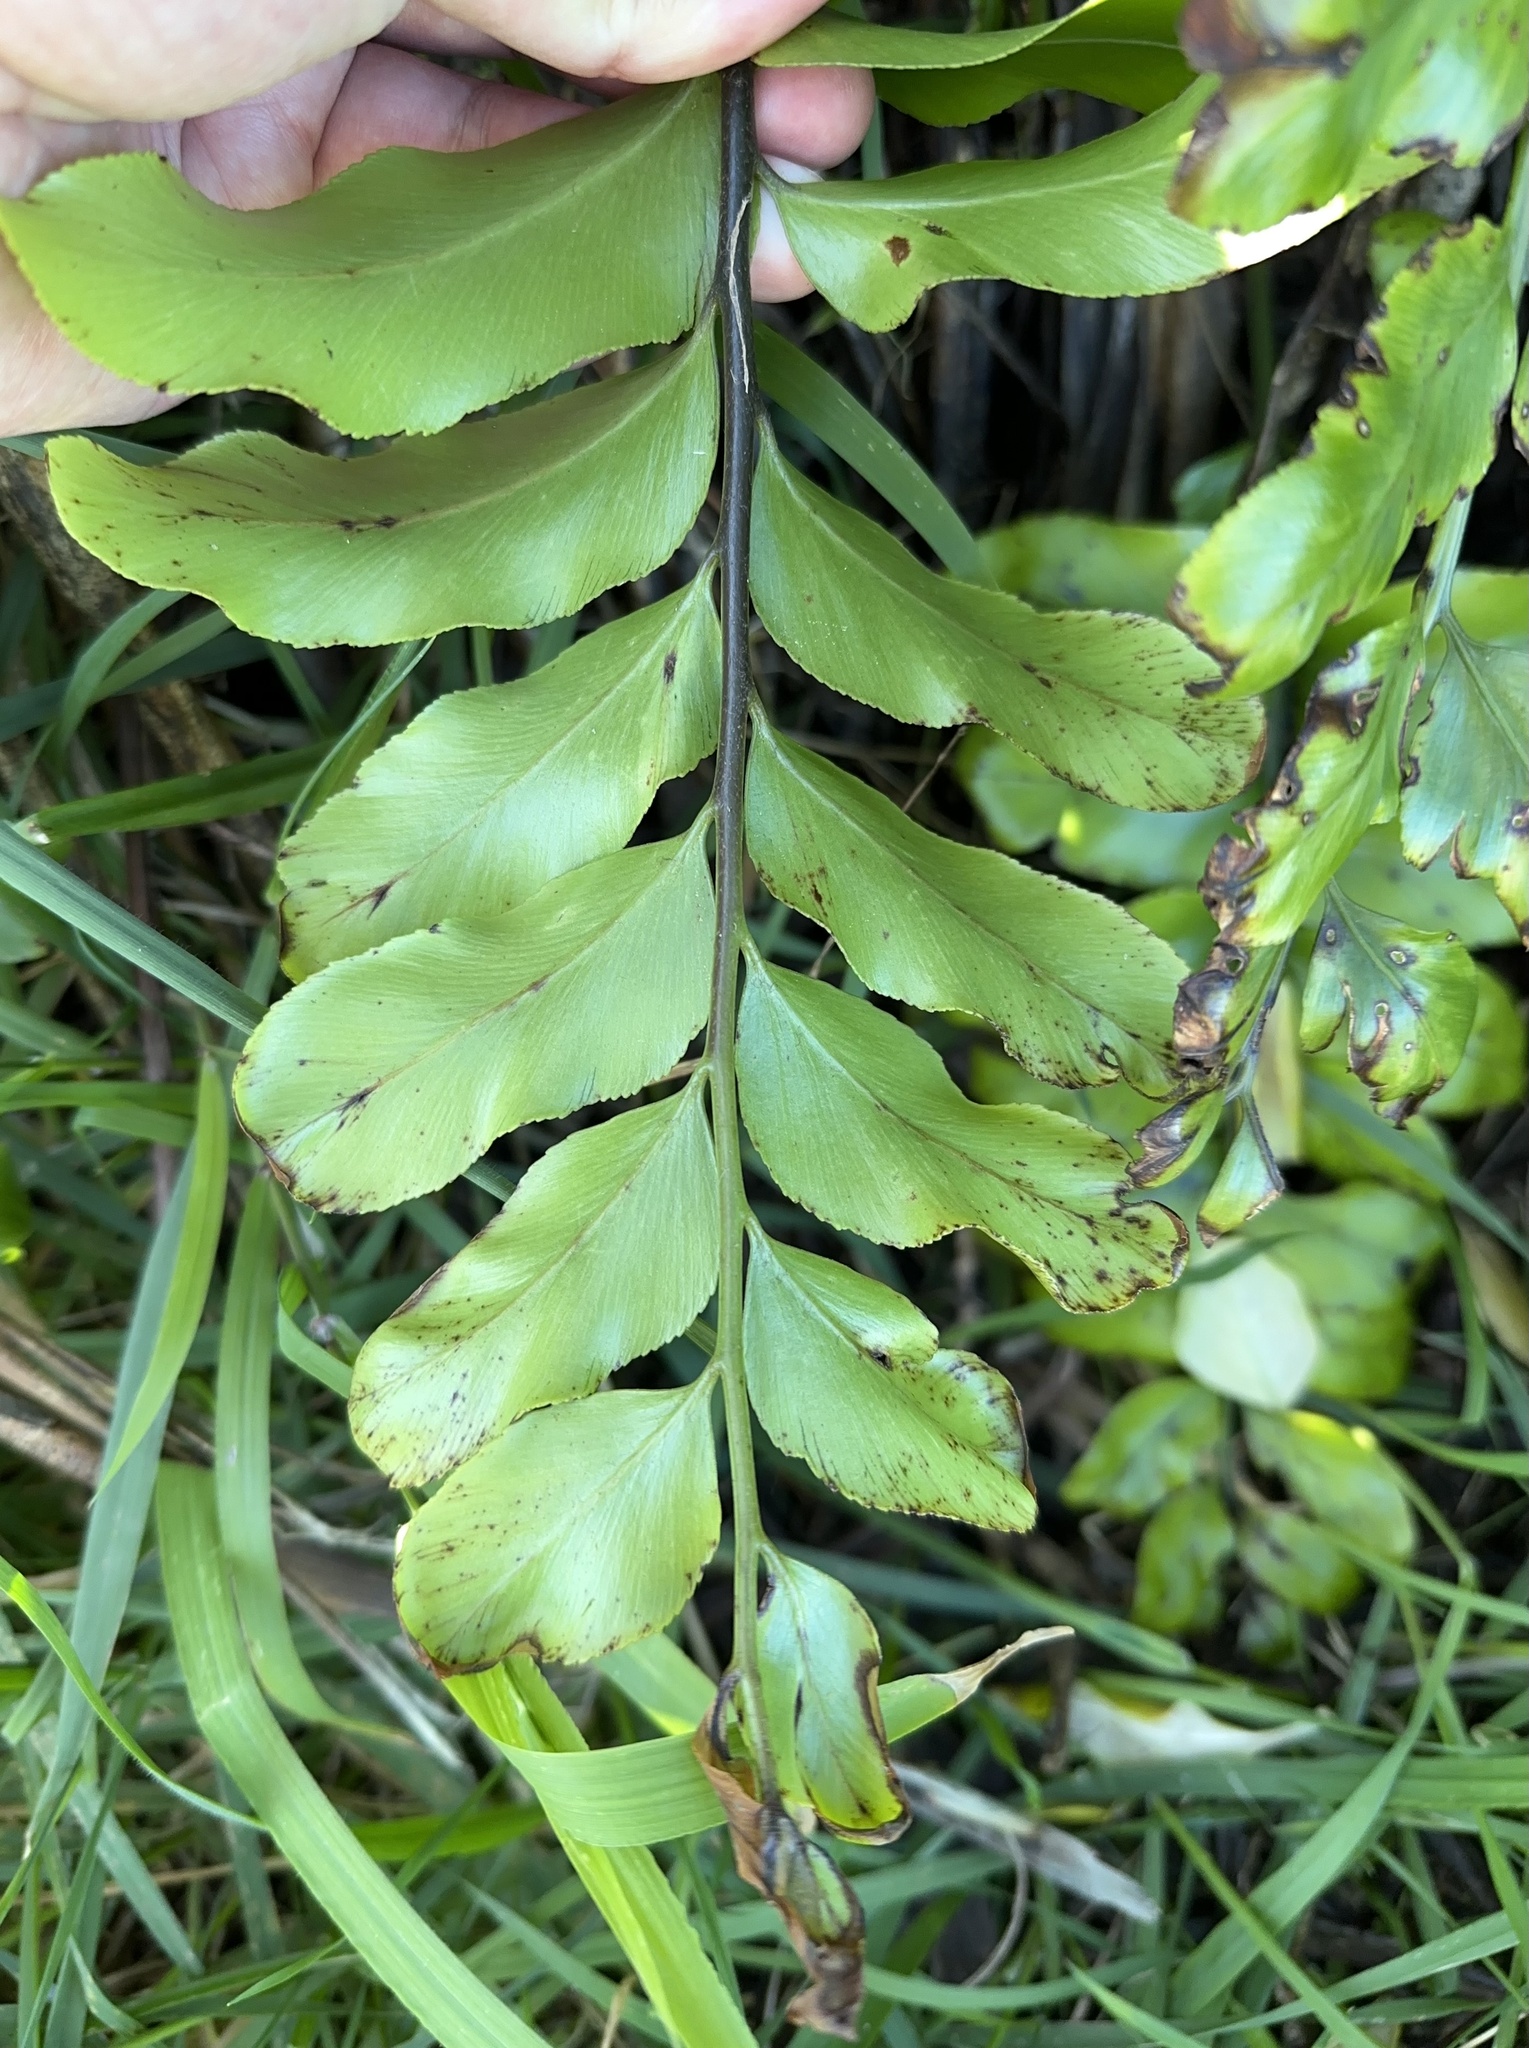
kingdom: Plantae
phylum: Tracheophyta
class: Polypodiopsida
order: Polypodiales
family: Aspleniaceae
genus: Asplenium
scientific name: Asplenium oblongifolium
